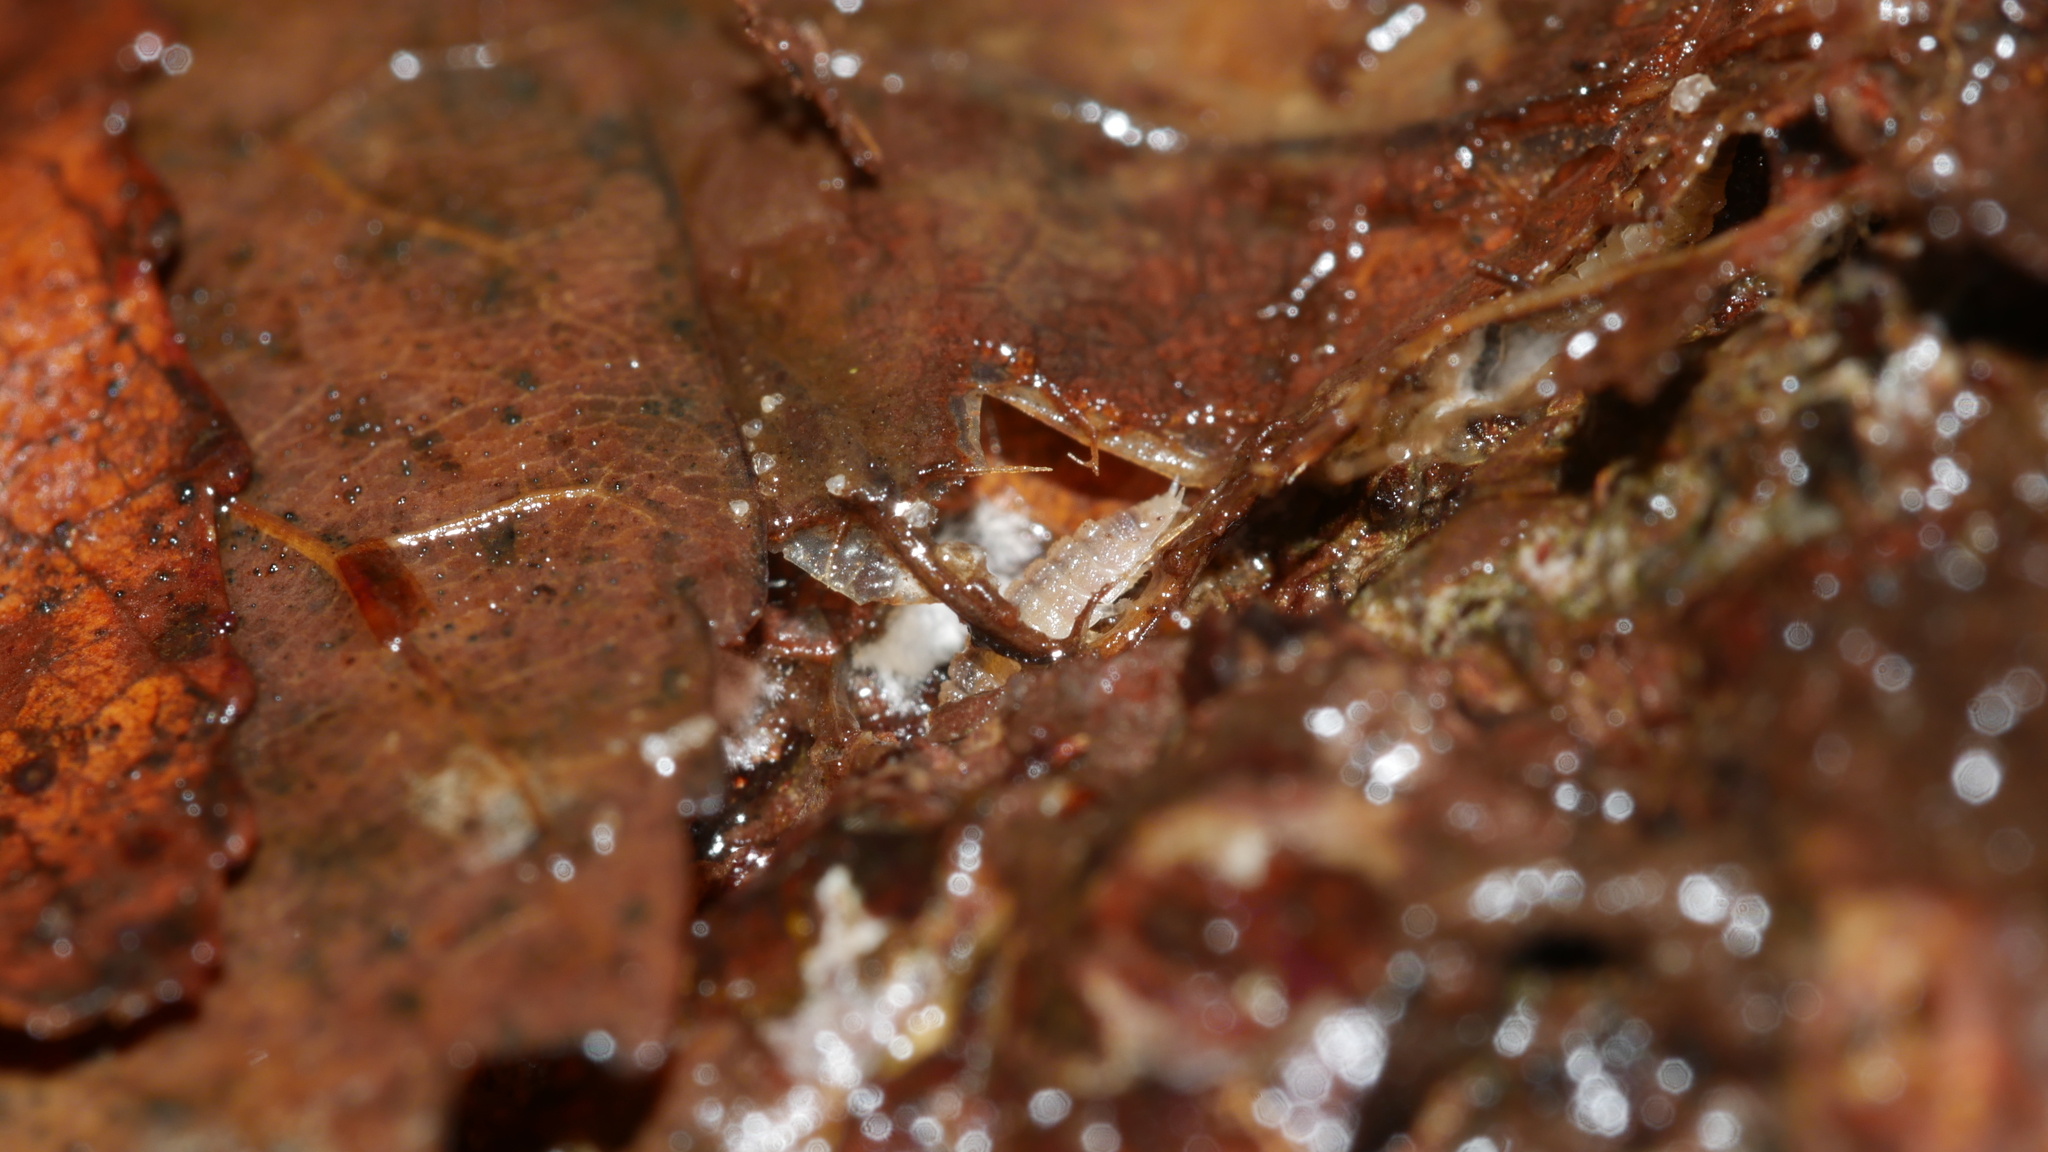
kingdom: Animalia
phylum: Arthropoda
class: Malacostraca
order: Isopoda
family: Trichoniscidae
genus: Haplophthalmus
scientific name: Haplophthalmus danicus
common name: Pillbug
